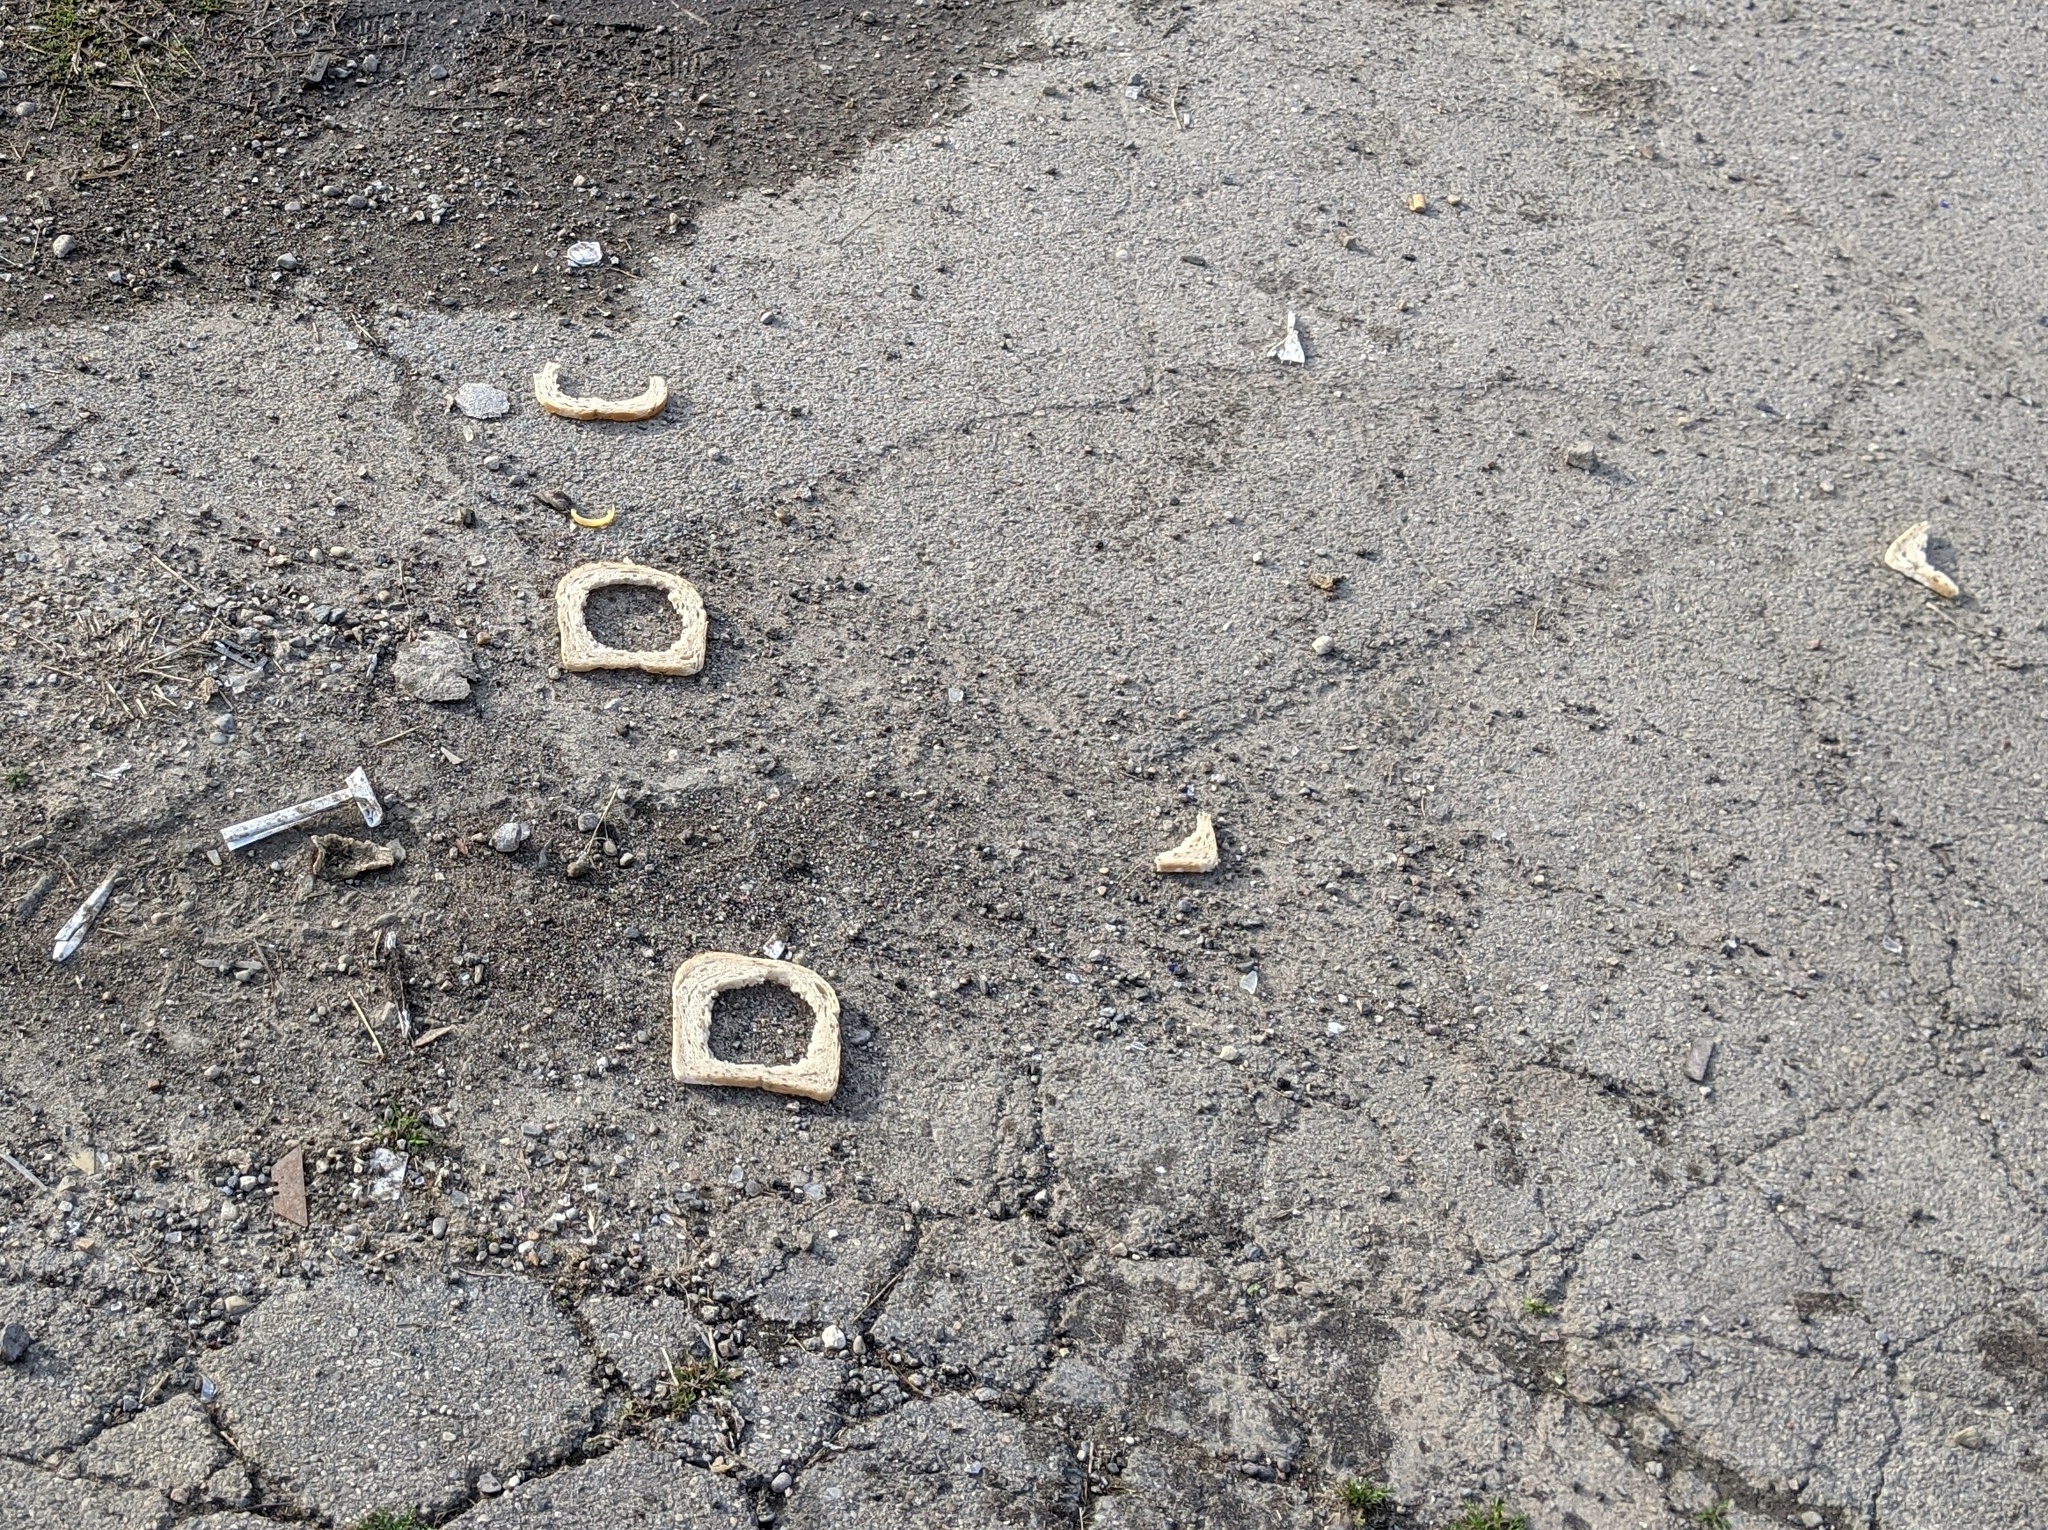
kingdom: Animalia
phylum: Chordata
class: Aves
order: Columbiformes
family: Columbidae
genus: Columba
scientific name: Columba livia
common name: Rock pigeon
